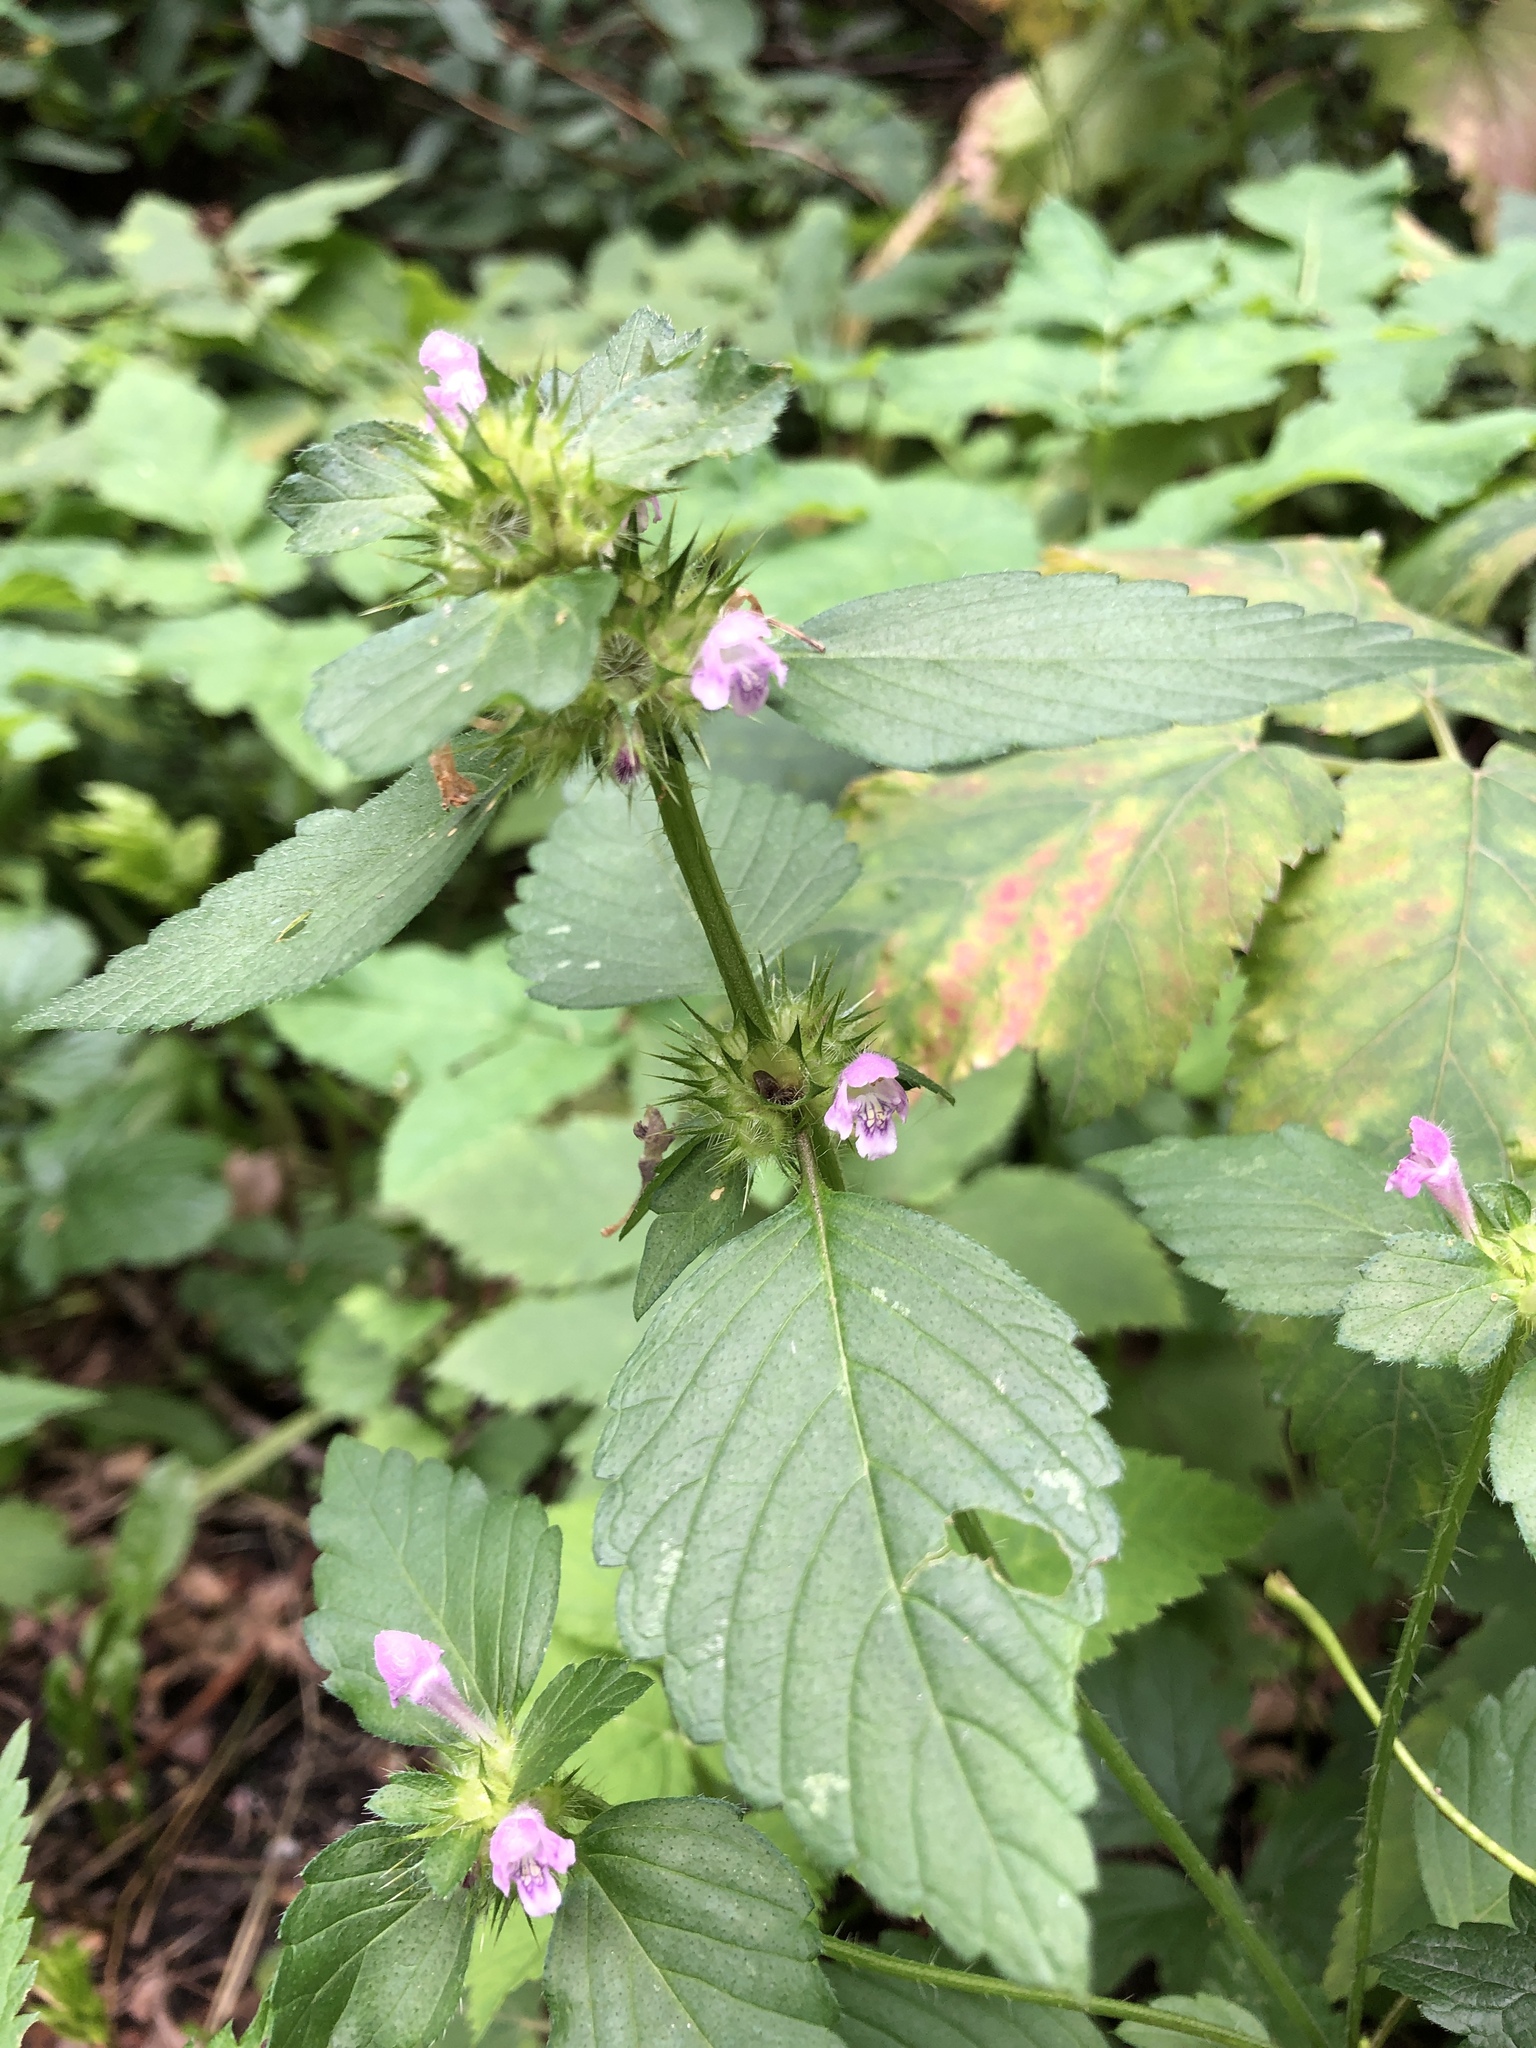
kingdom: Plantae
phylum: Tracheophyta
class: Magnoliopsida
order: Lamiales
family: Lamiaceae
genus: Galeopsis
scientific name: Galeopsis tetrahit
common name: Common hemp-nettle
